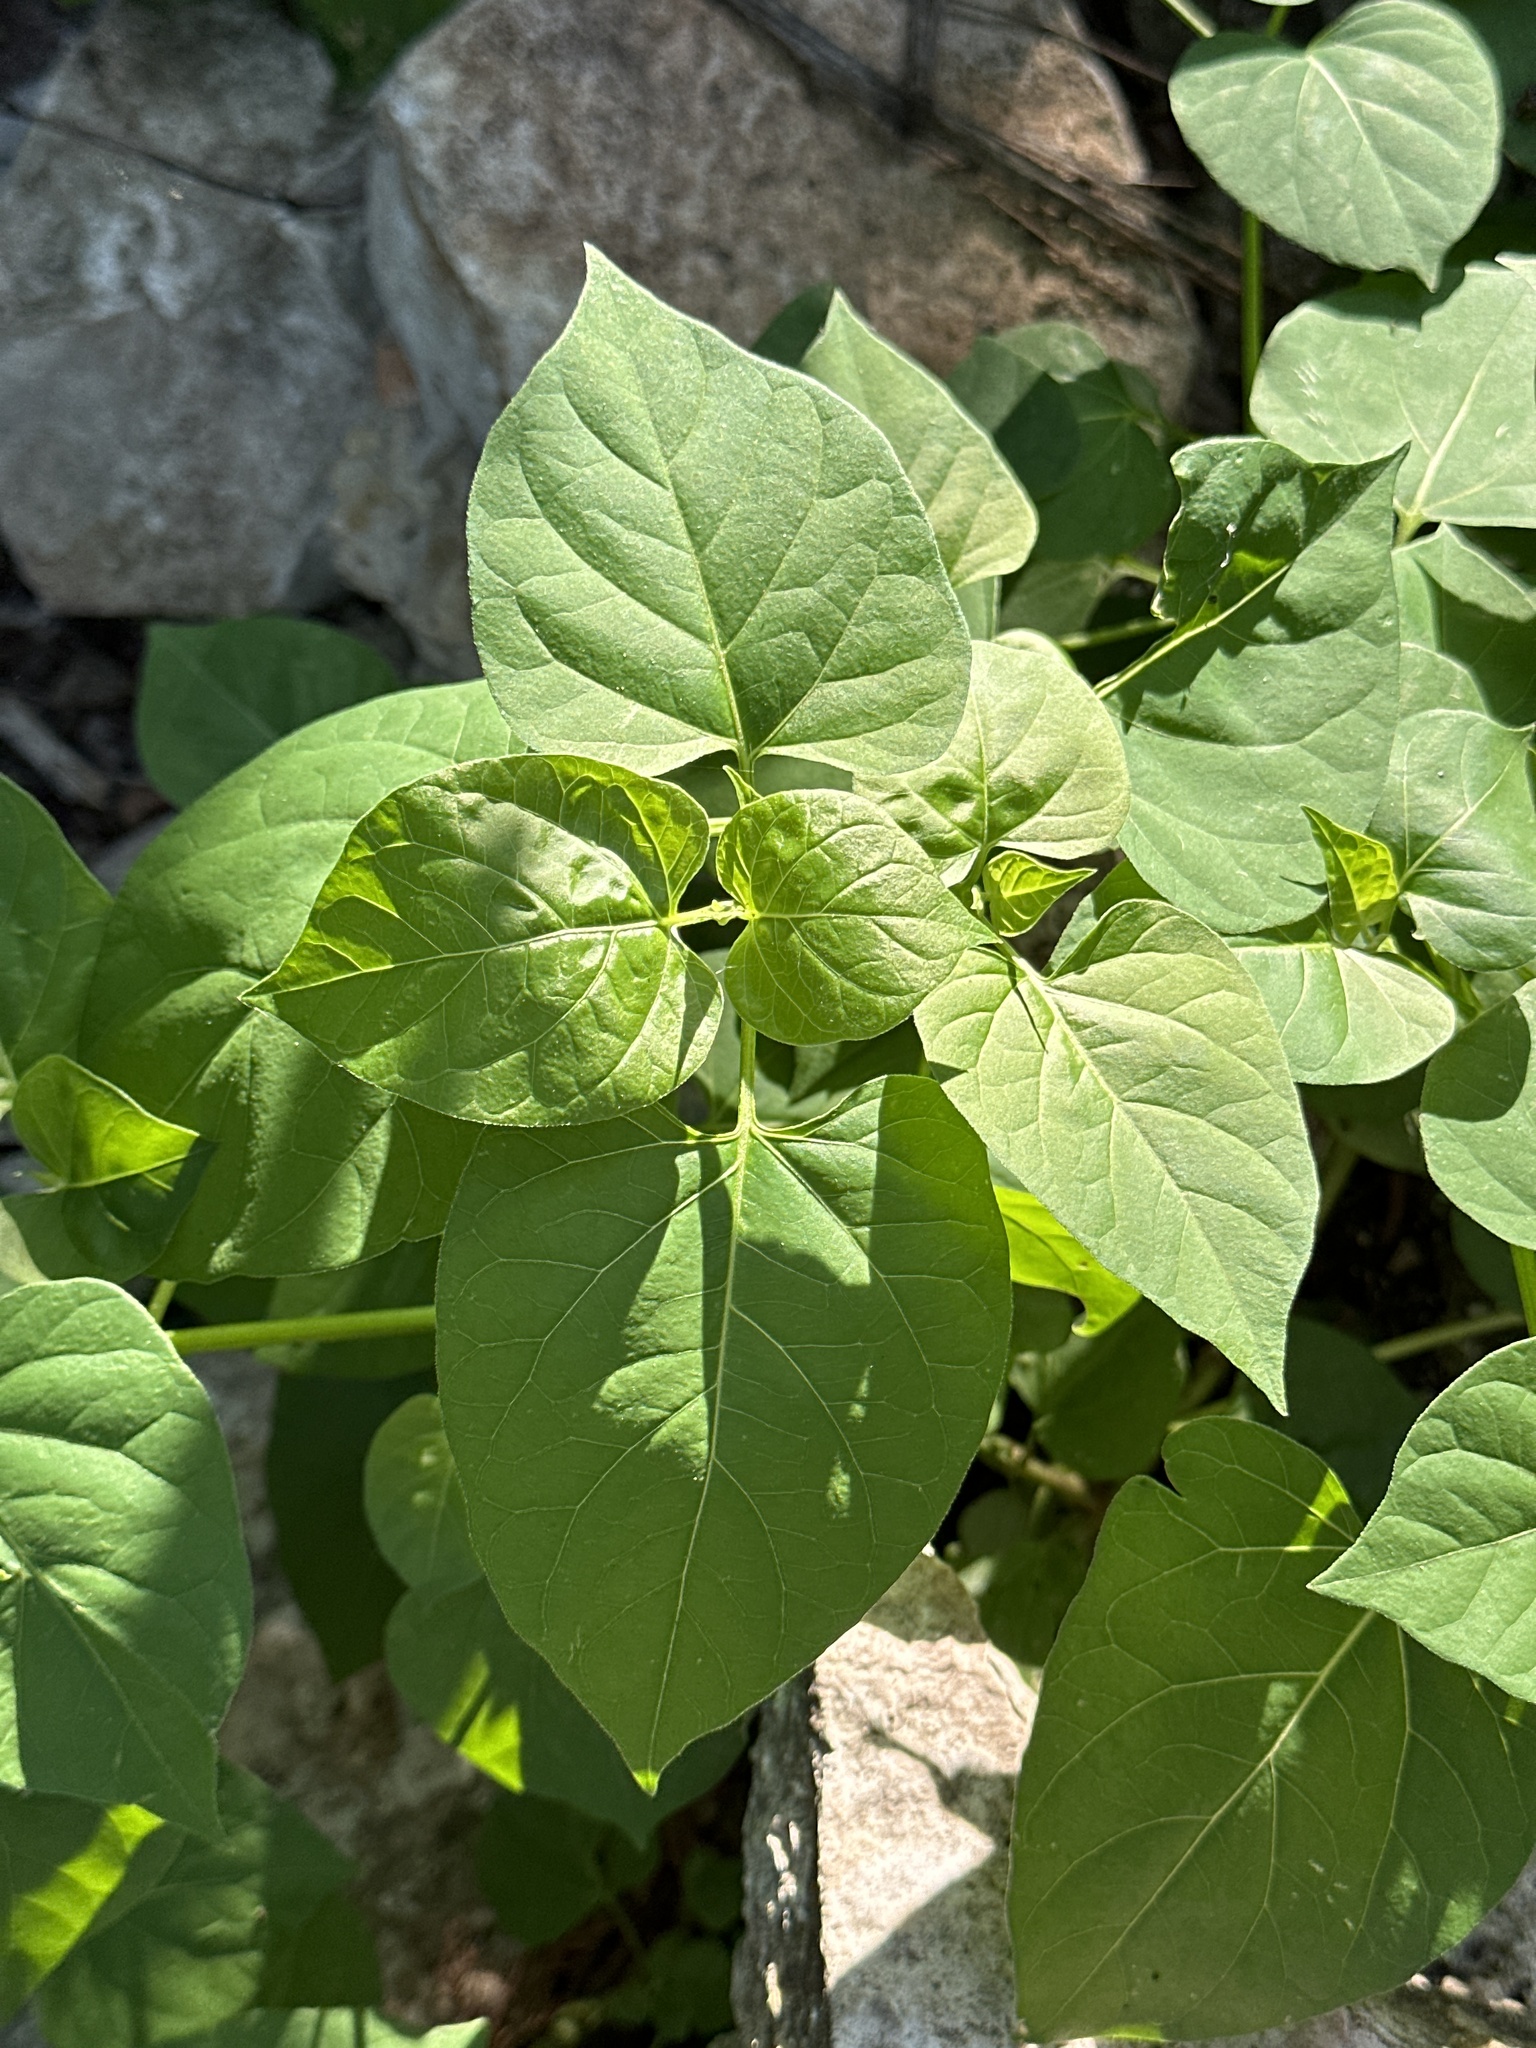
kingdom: Plantae
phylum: Tracheophyta
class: Magnoliopsida
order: Caryophyllales
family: Nyctaginaceae
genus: Mirabilis
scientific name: Mirabilis jalapa
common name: Marvel-of-peru
